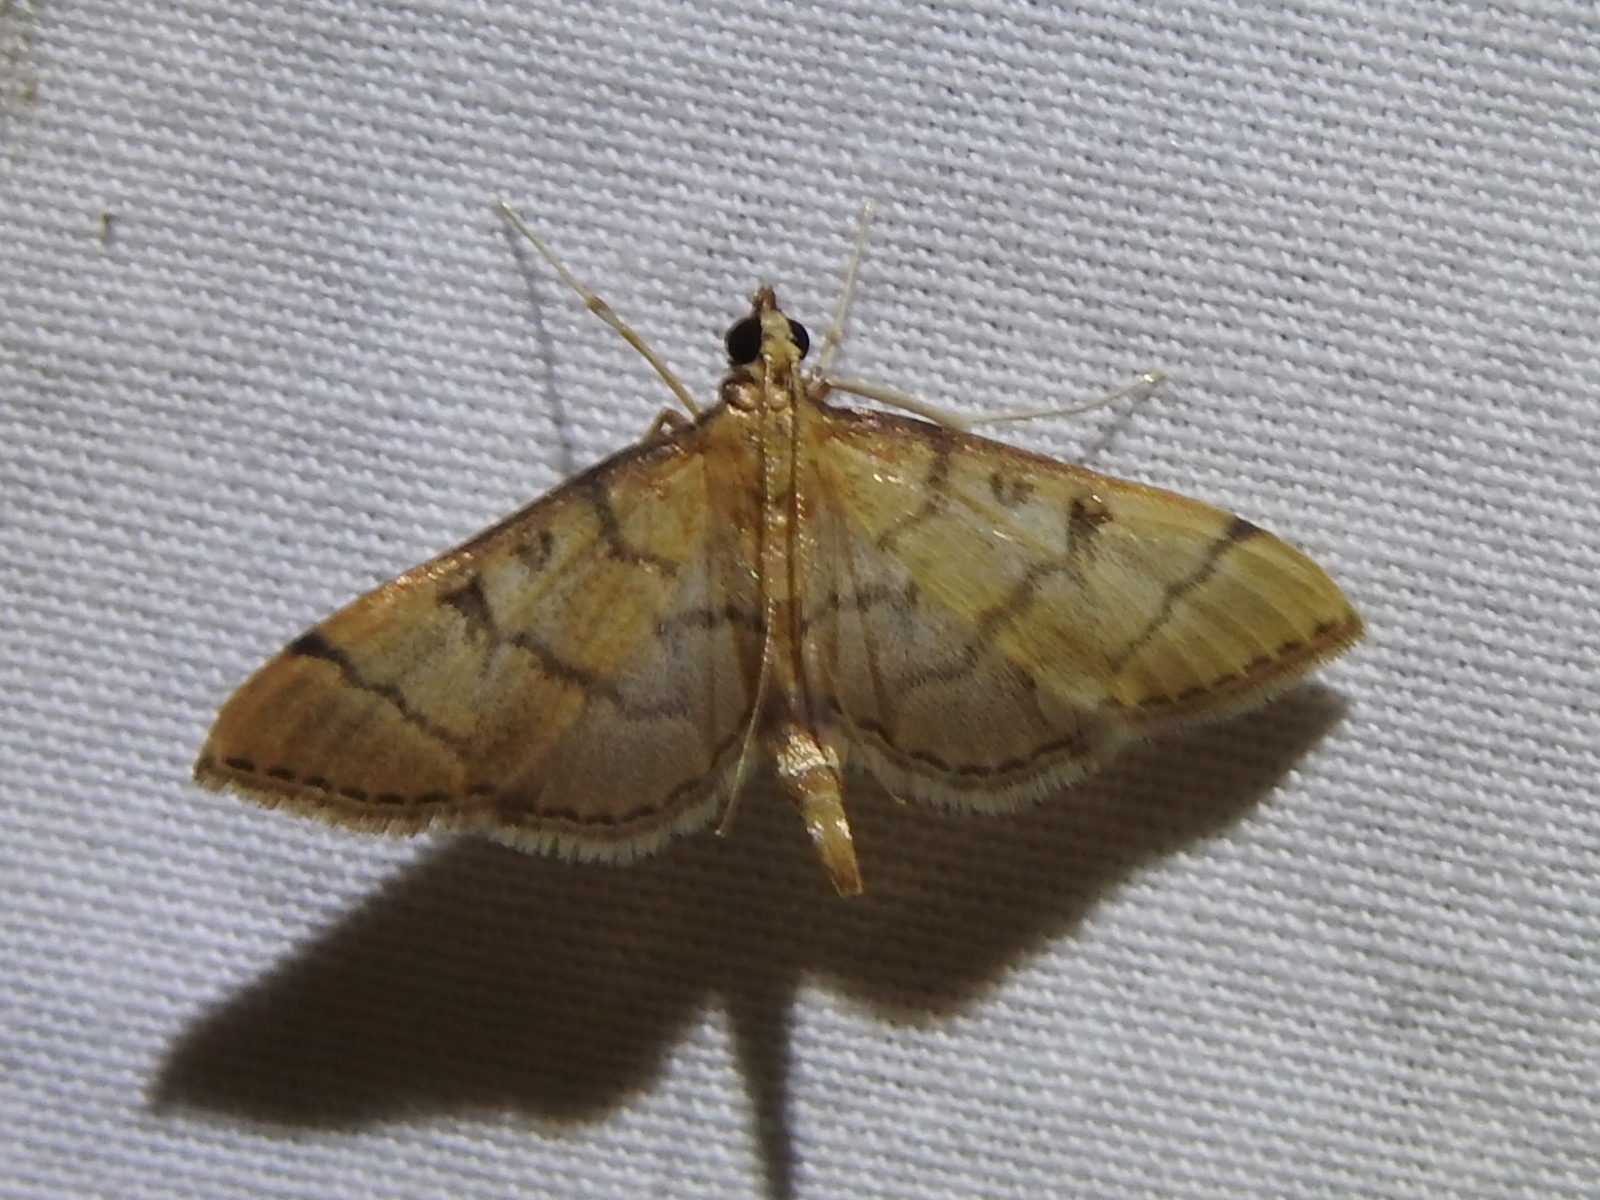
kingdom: Animalia
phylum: Arthropoda
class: Insecta
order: Lepidoptera
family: Crambidae
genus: Lamprosema
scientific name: Lamprosema Blepharomastix ranalis
